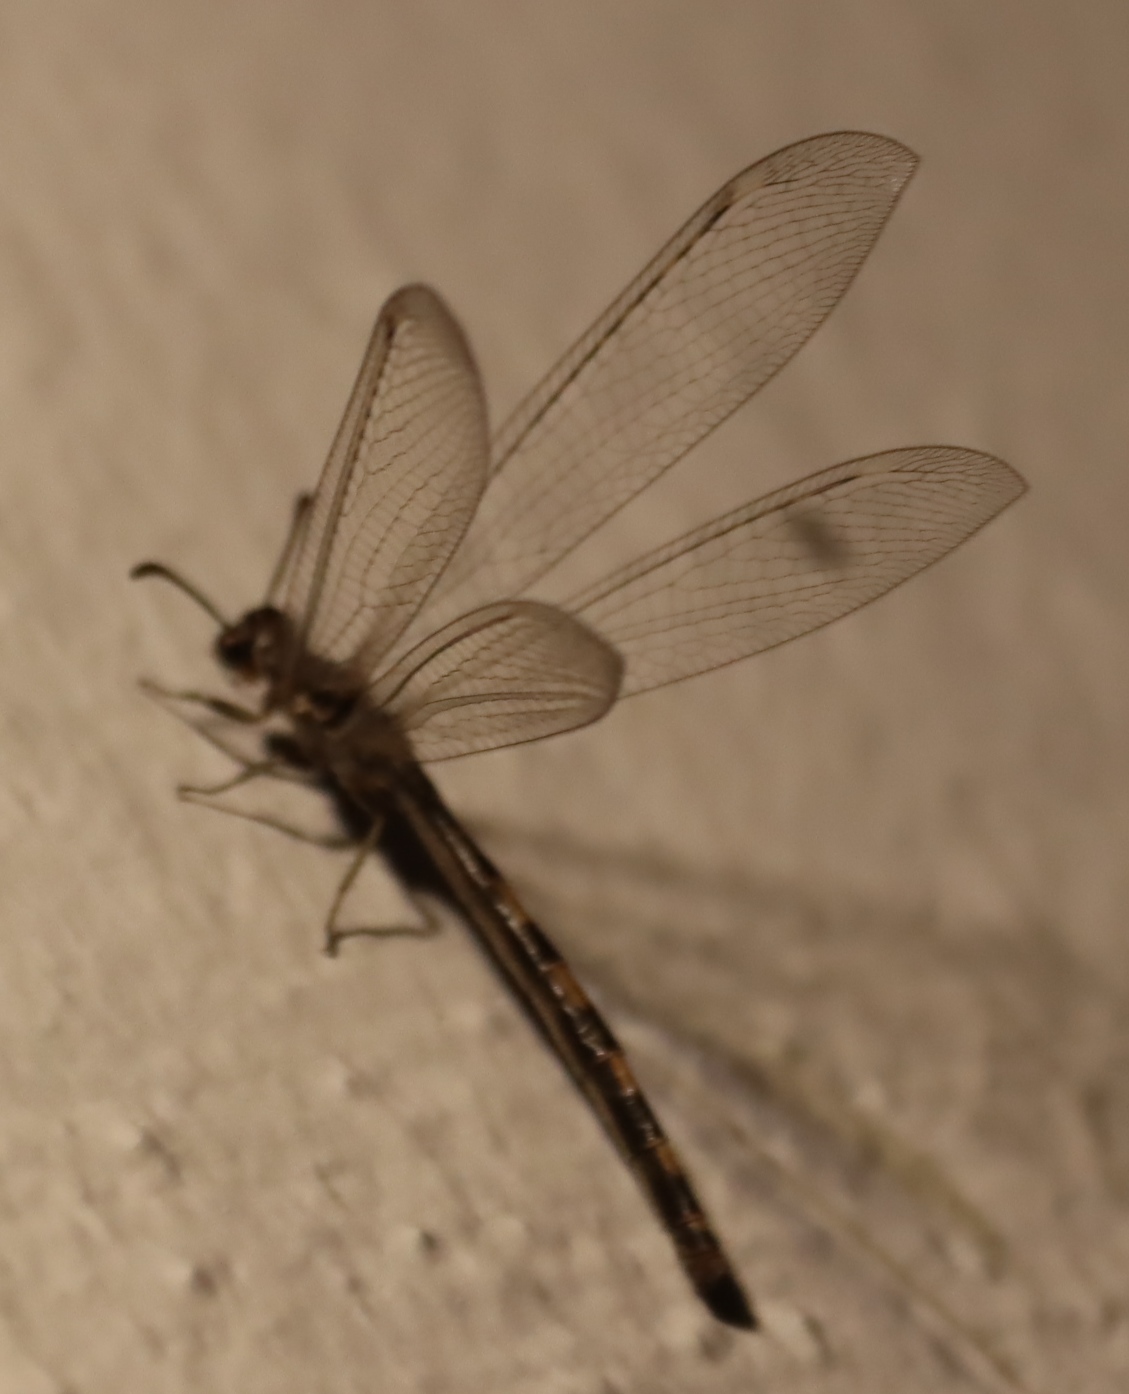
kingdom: Animalia
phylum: Arthropoda
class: Insecta
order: Neuroptera
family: Myrmeleontidae
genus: Myrmeleon
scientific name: Myrmeleon obscurus
